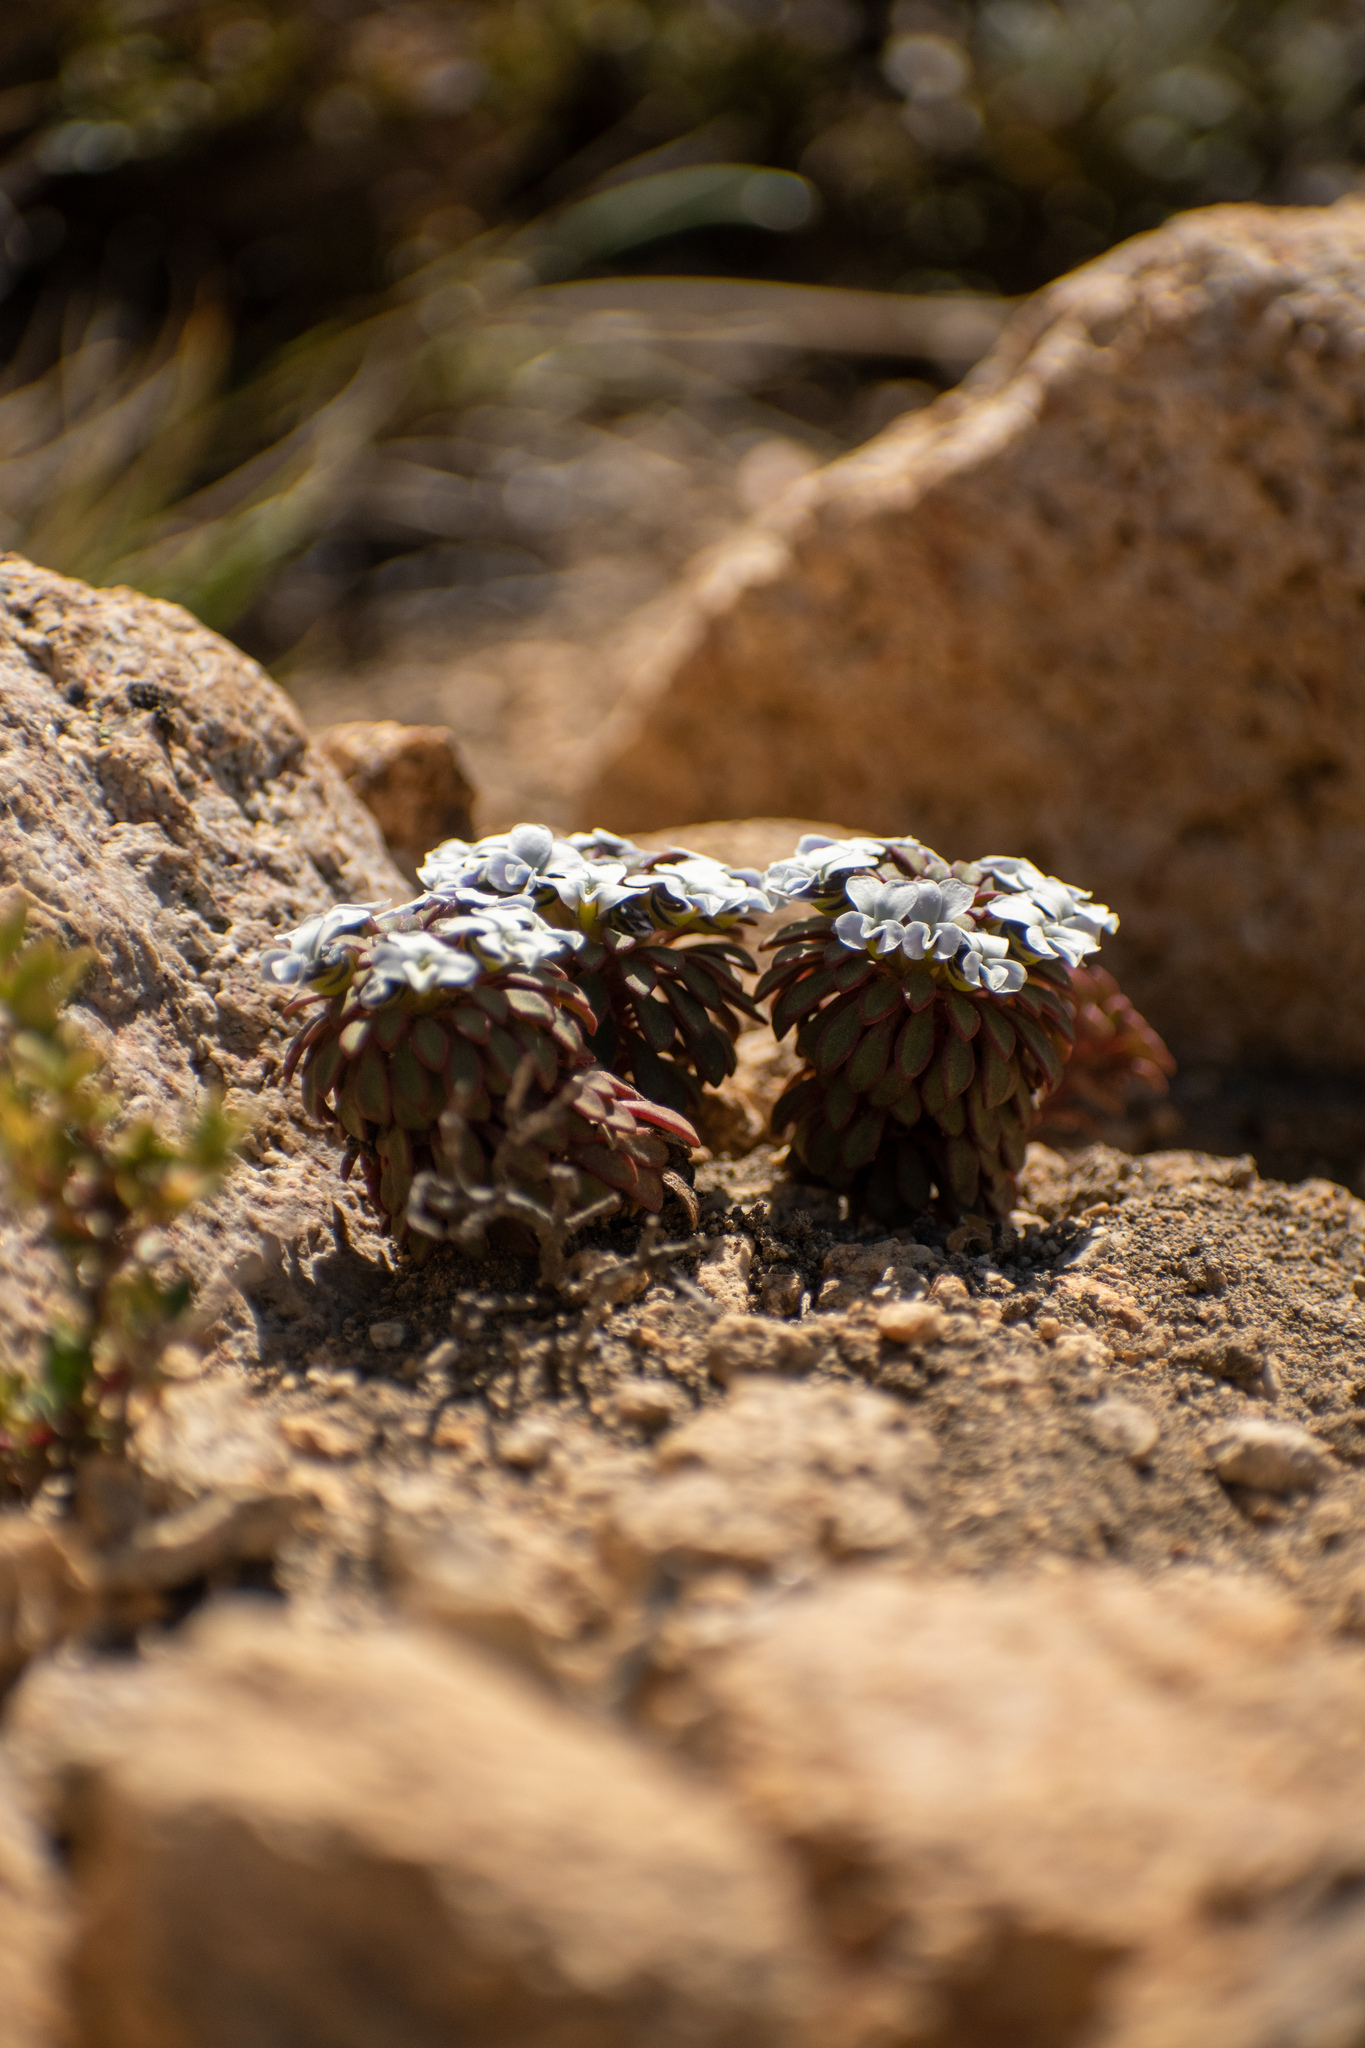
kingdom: Plantae
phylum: Tracheophyta
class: Magnoliopsida
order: Malpighiales
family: Violaceae
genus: Viola
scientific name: Viola sacculus
